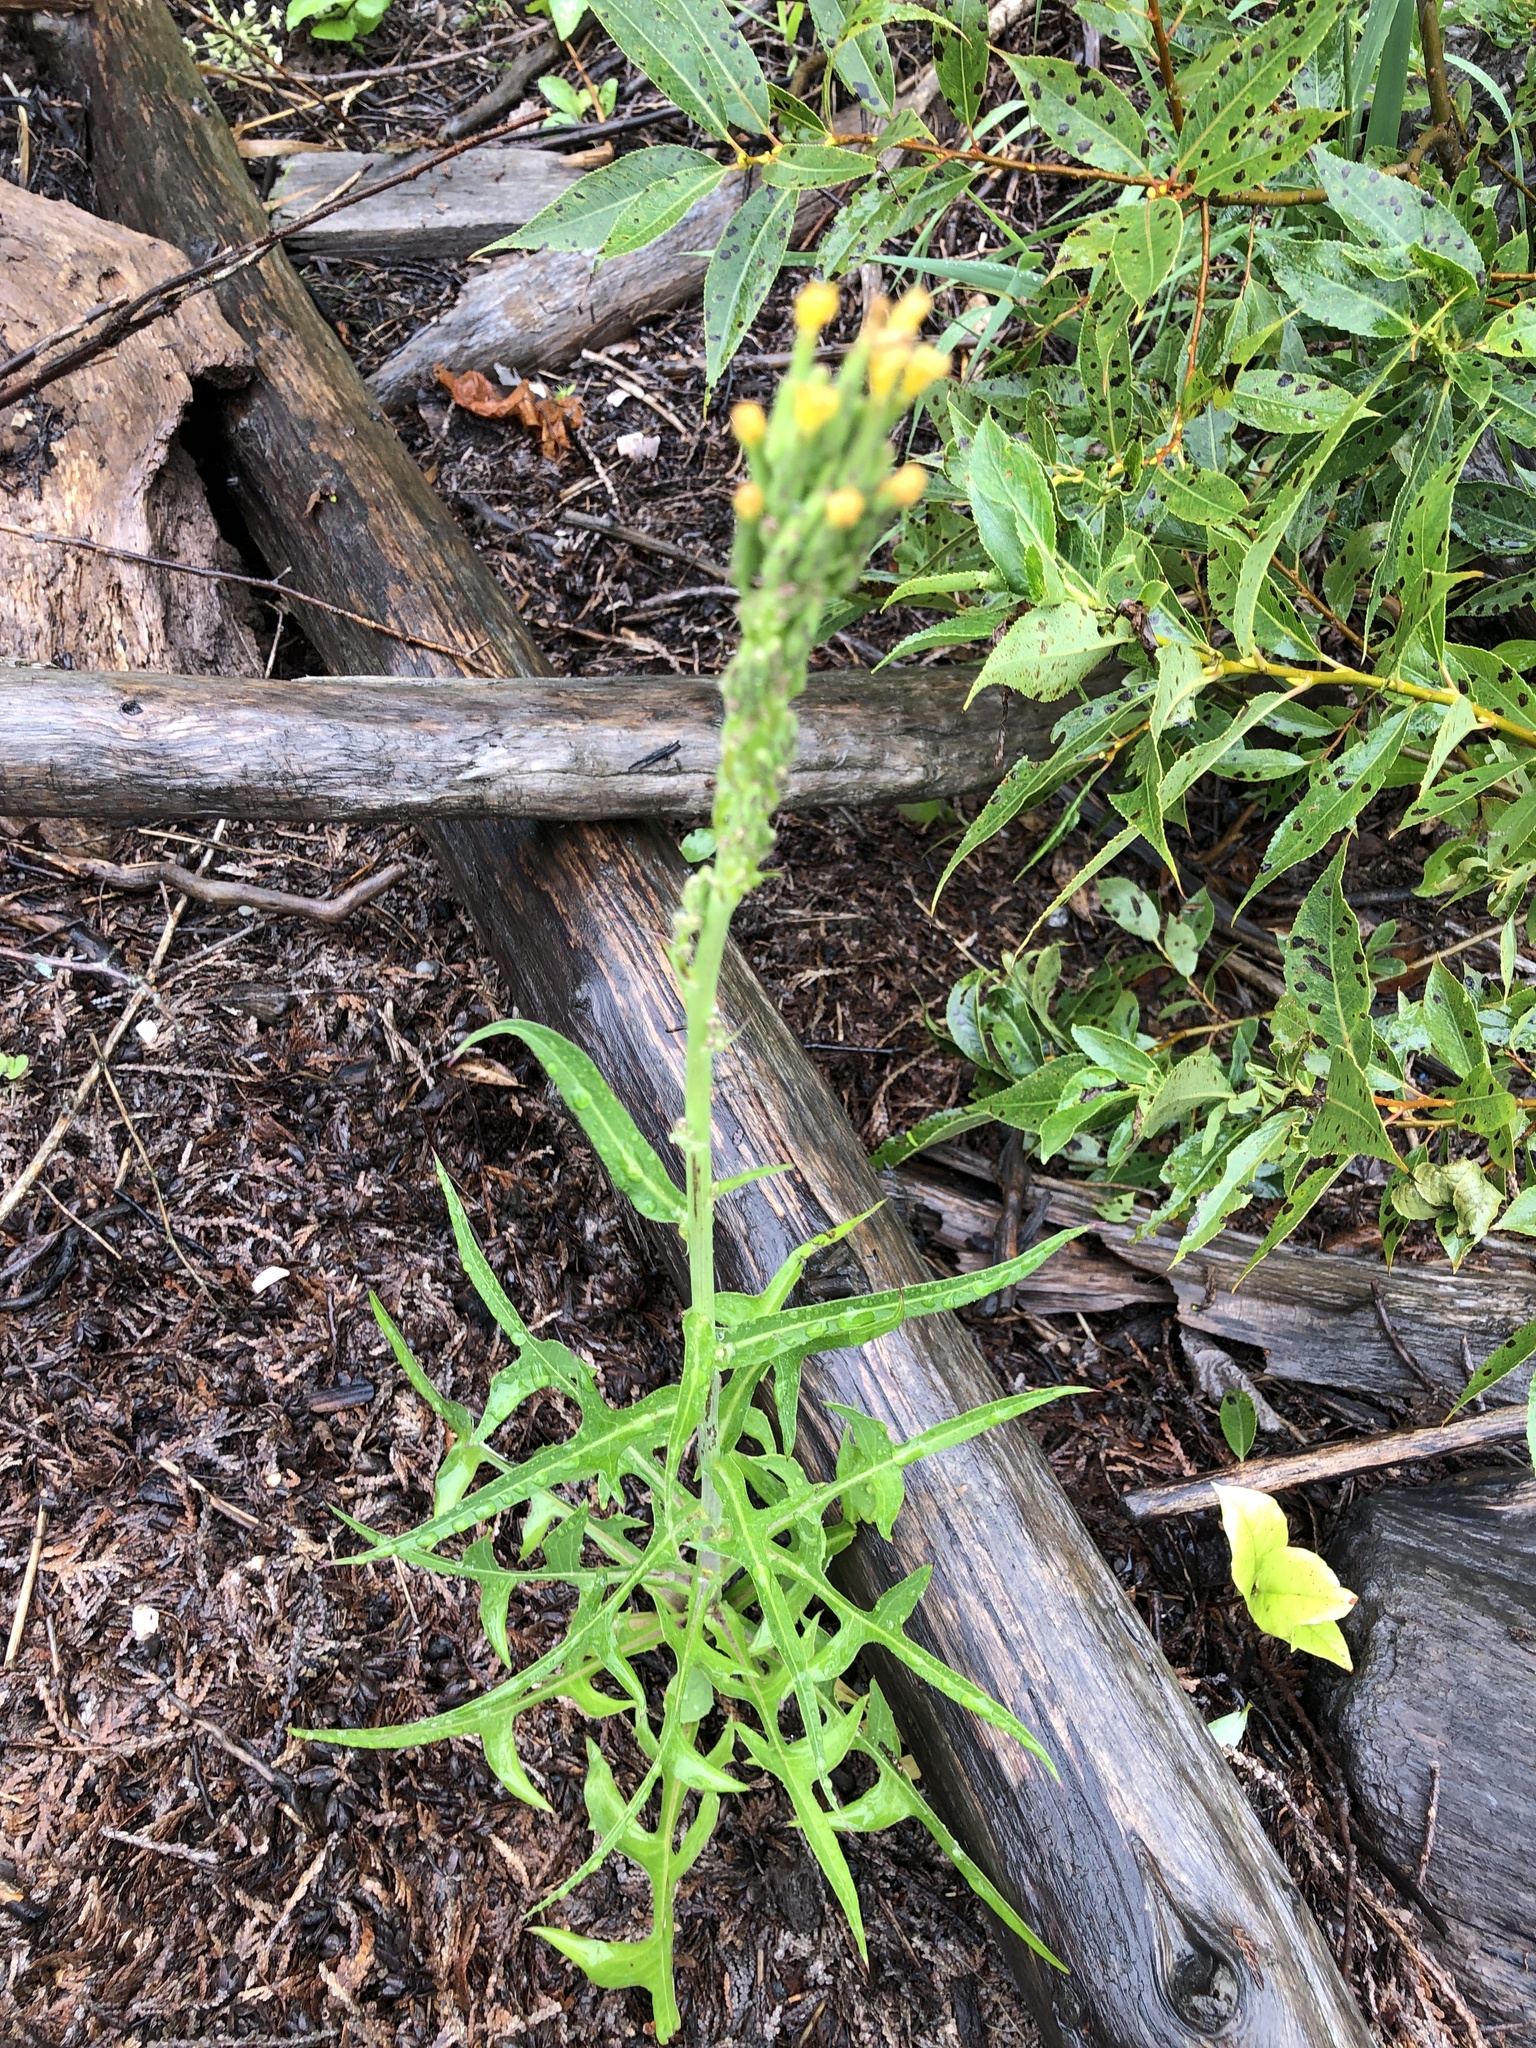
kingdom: Plantae
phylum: Tracheophyta
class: Magnoliopsida
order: Asterales
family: Asteraceae
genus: Lactuca
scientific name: Lactuca canadensis
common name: Canada lettuce
